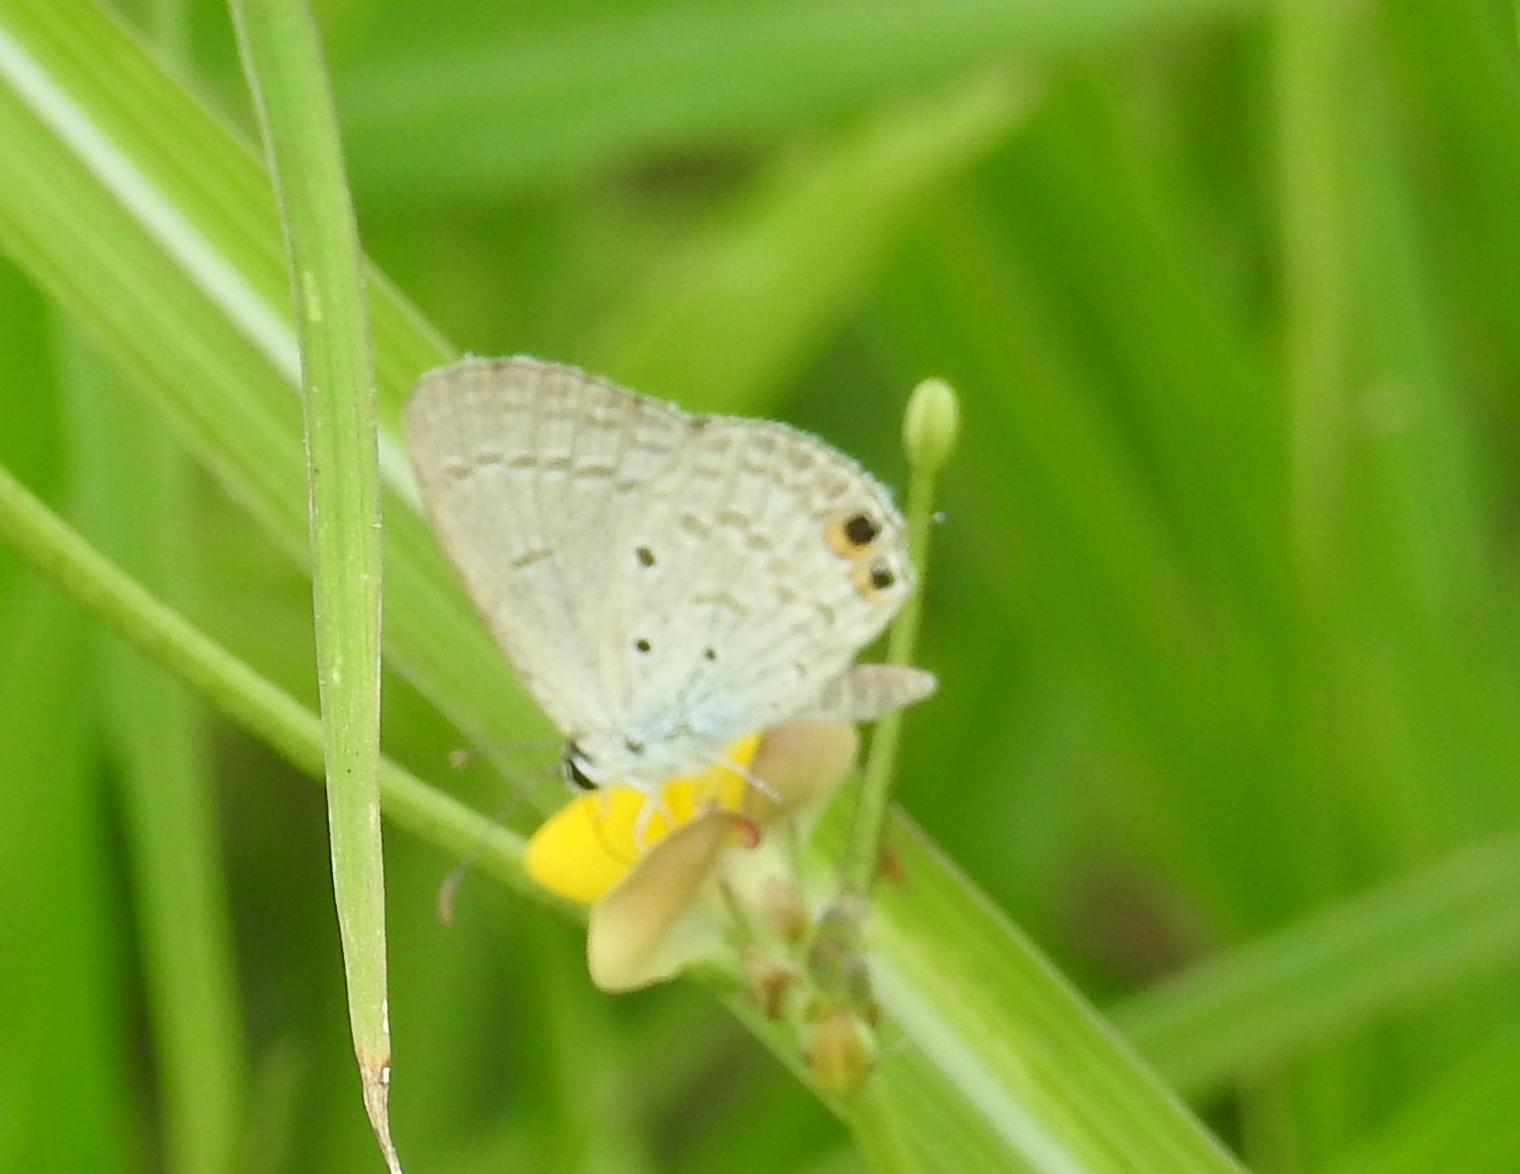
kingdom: Animalia
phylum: Arthropoda
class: Insecta
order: Lepidoptera
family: Lycaenidae
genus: Euchrysops
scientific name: Euchrysops cnejus
